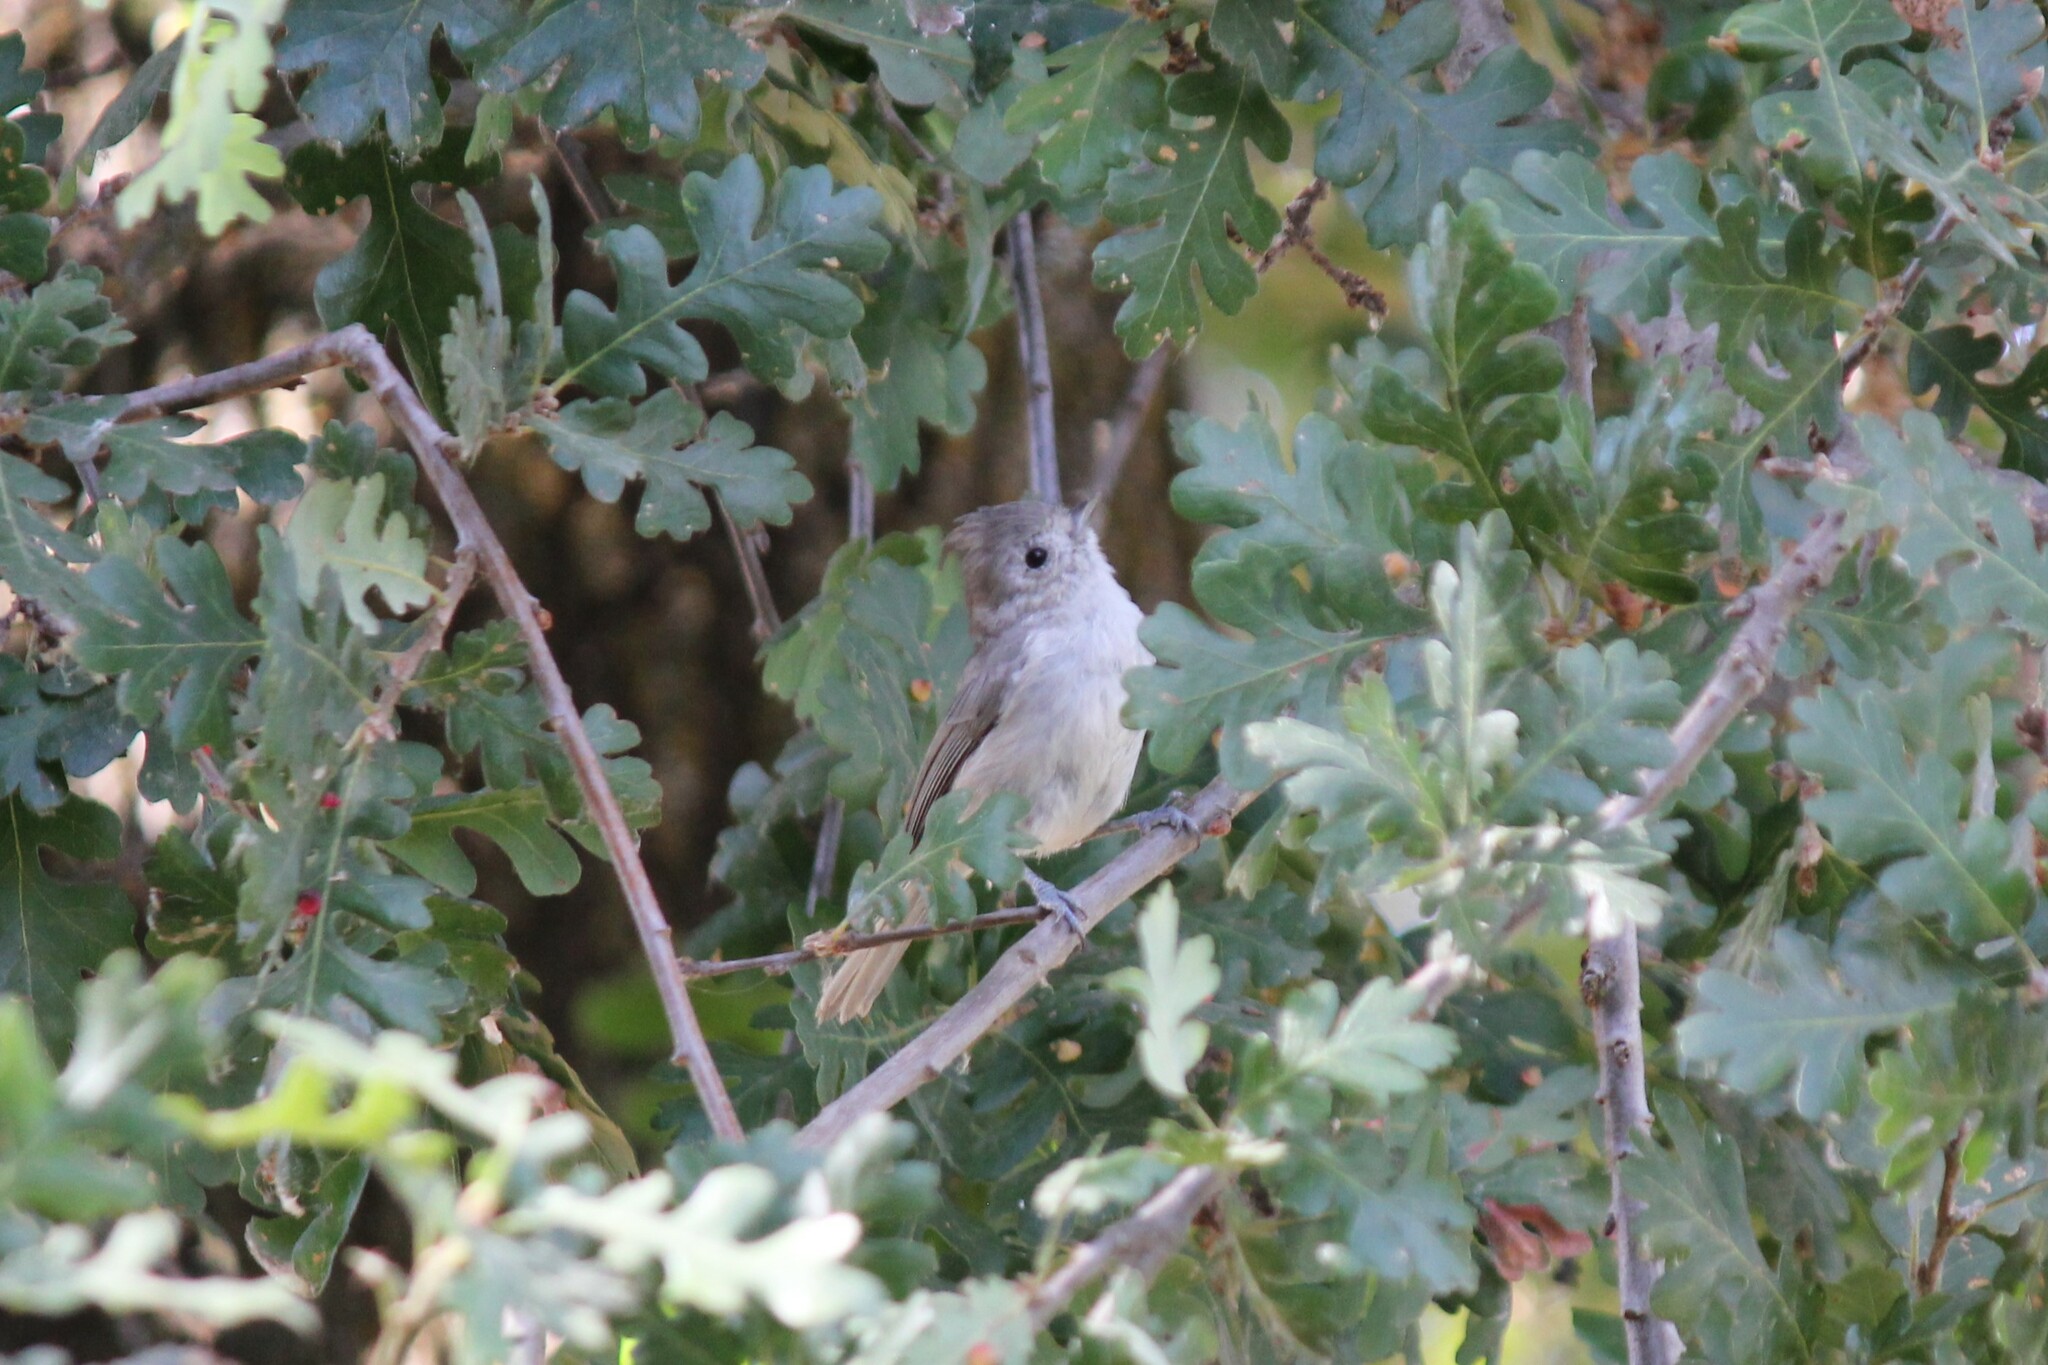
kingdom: Animalia
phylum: Chordata
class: Aves
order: Passeriformes
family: Paridae
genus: Baeolophus
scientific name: Baeolophus inornatus
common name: Oak titmouse
